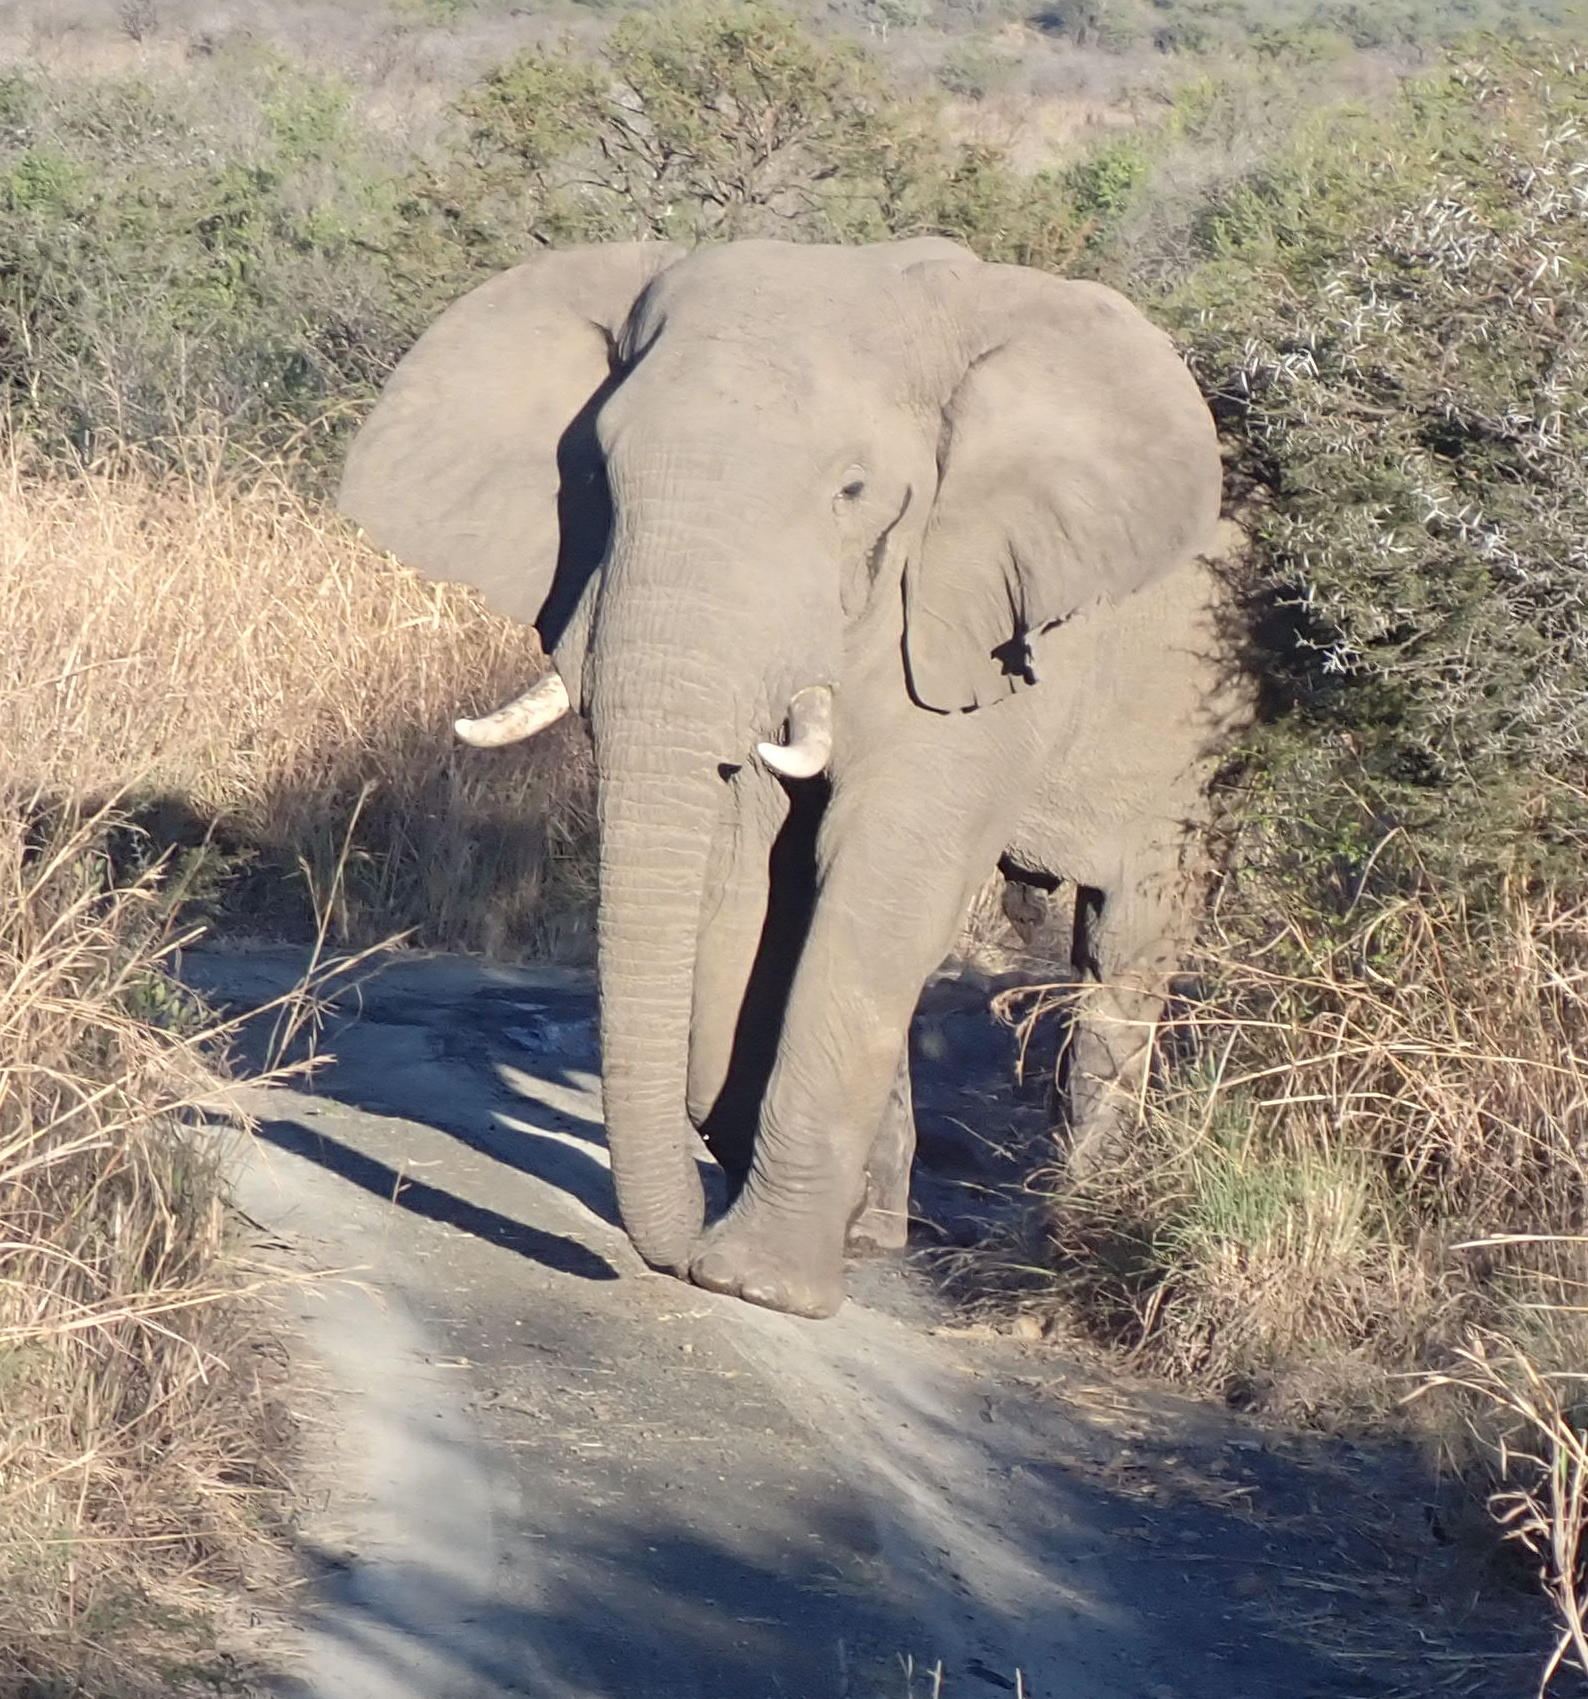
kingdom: Animalia
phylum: Chordata
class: Mammalia
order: Proboscidea
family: Elephantidae
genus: Loxodonta
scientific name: Loxodonta africana
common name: African elephant
